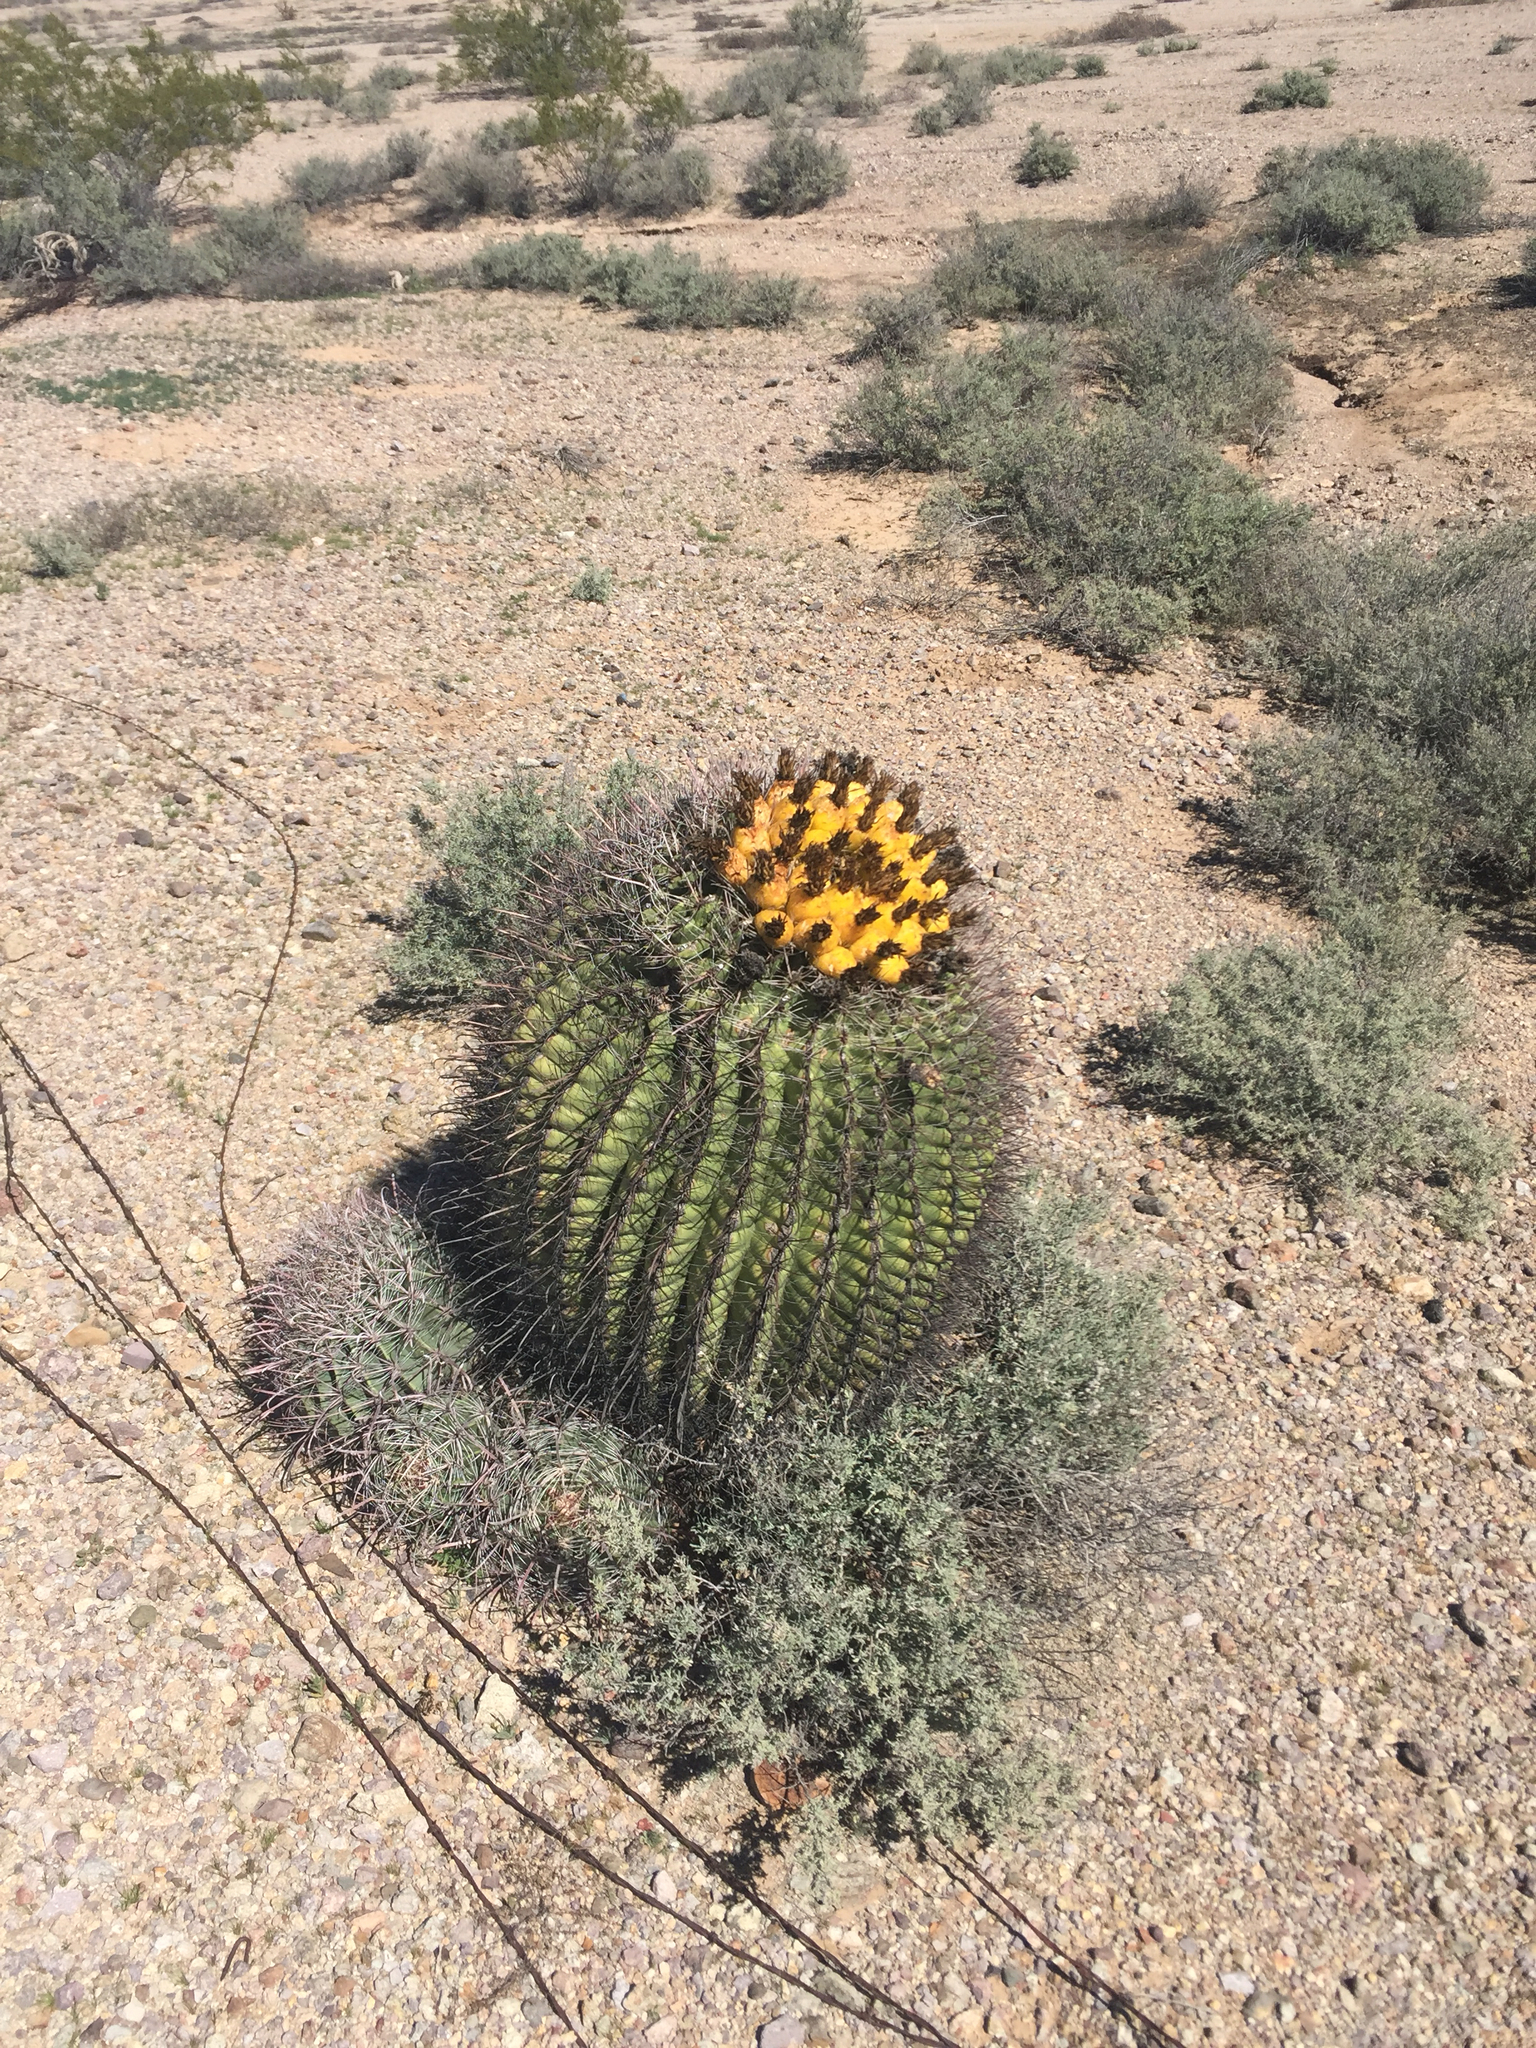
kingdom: Plantae
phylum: Tracheophyta
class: Magnoliopsida
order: Caryophyllales
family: Cactaceae
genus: Ferocactus
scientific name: Ferocactus wislizeni
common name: Candy barrel cactus
